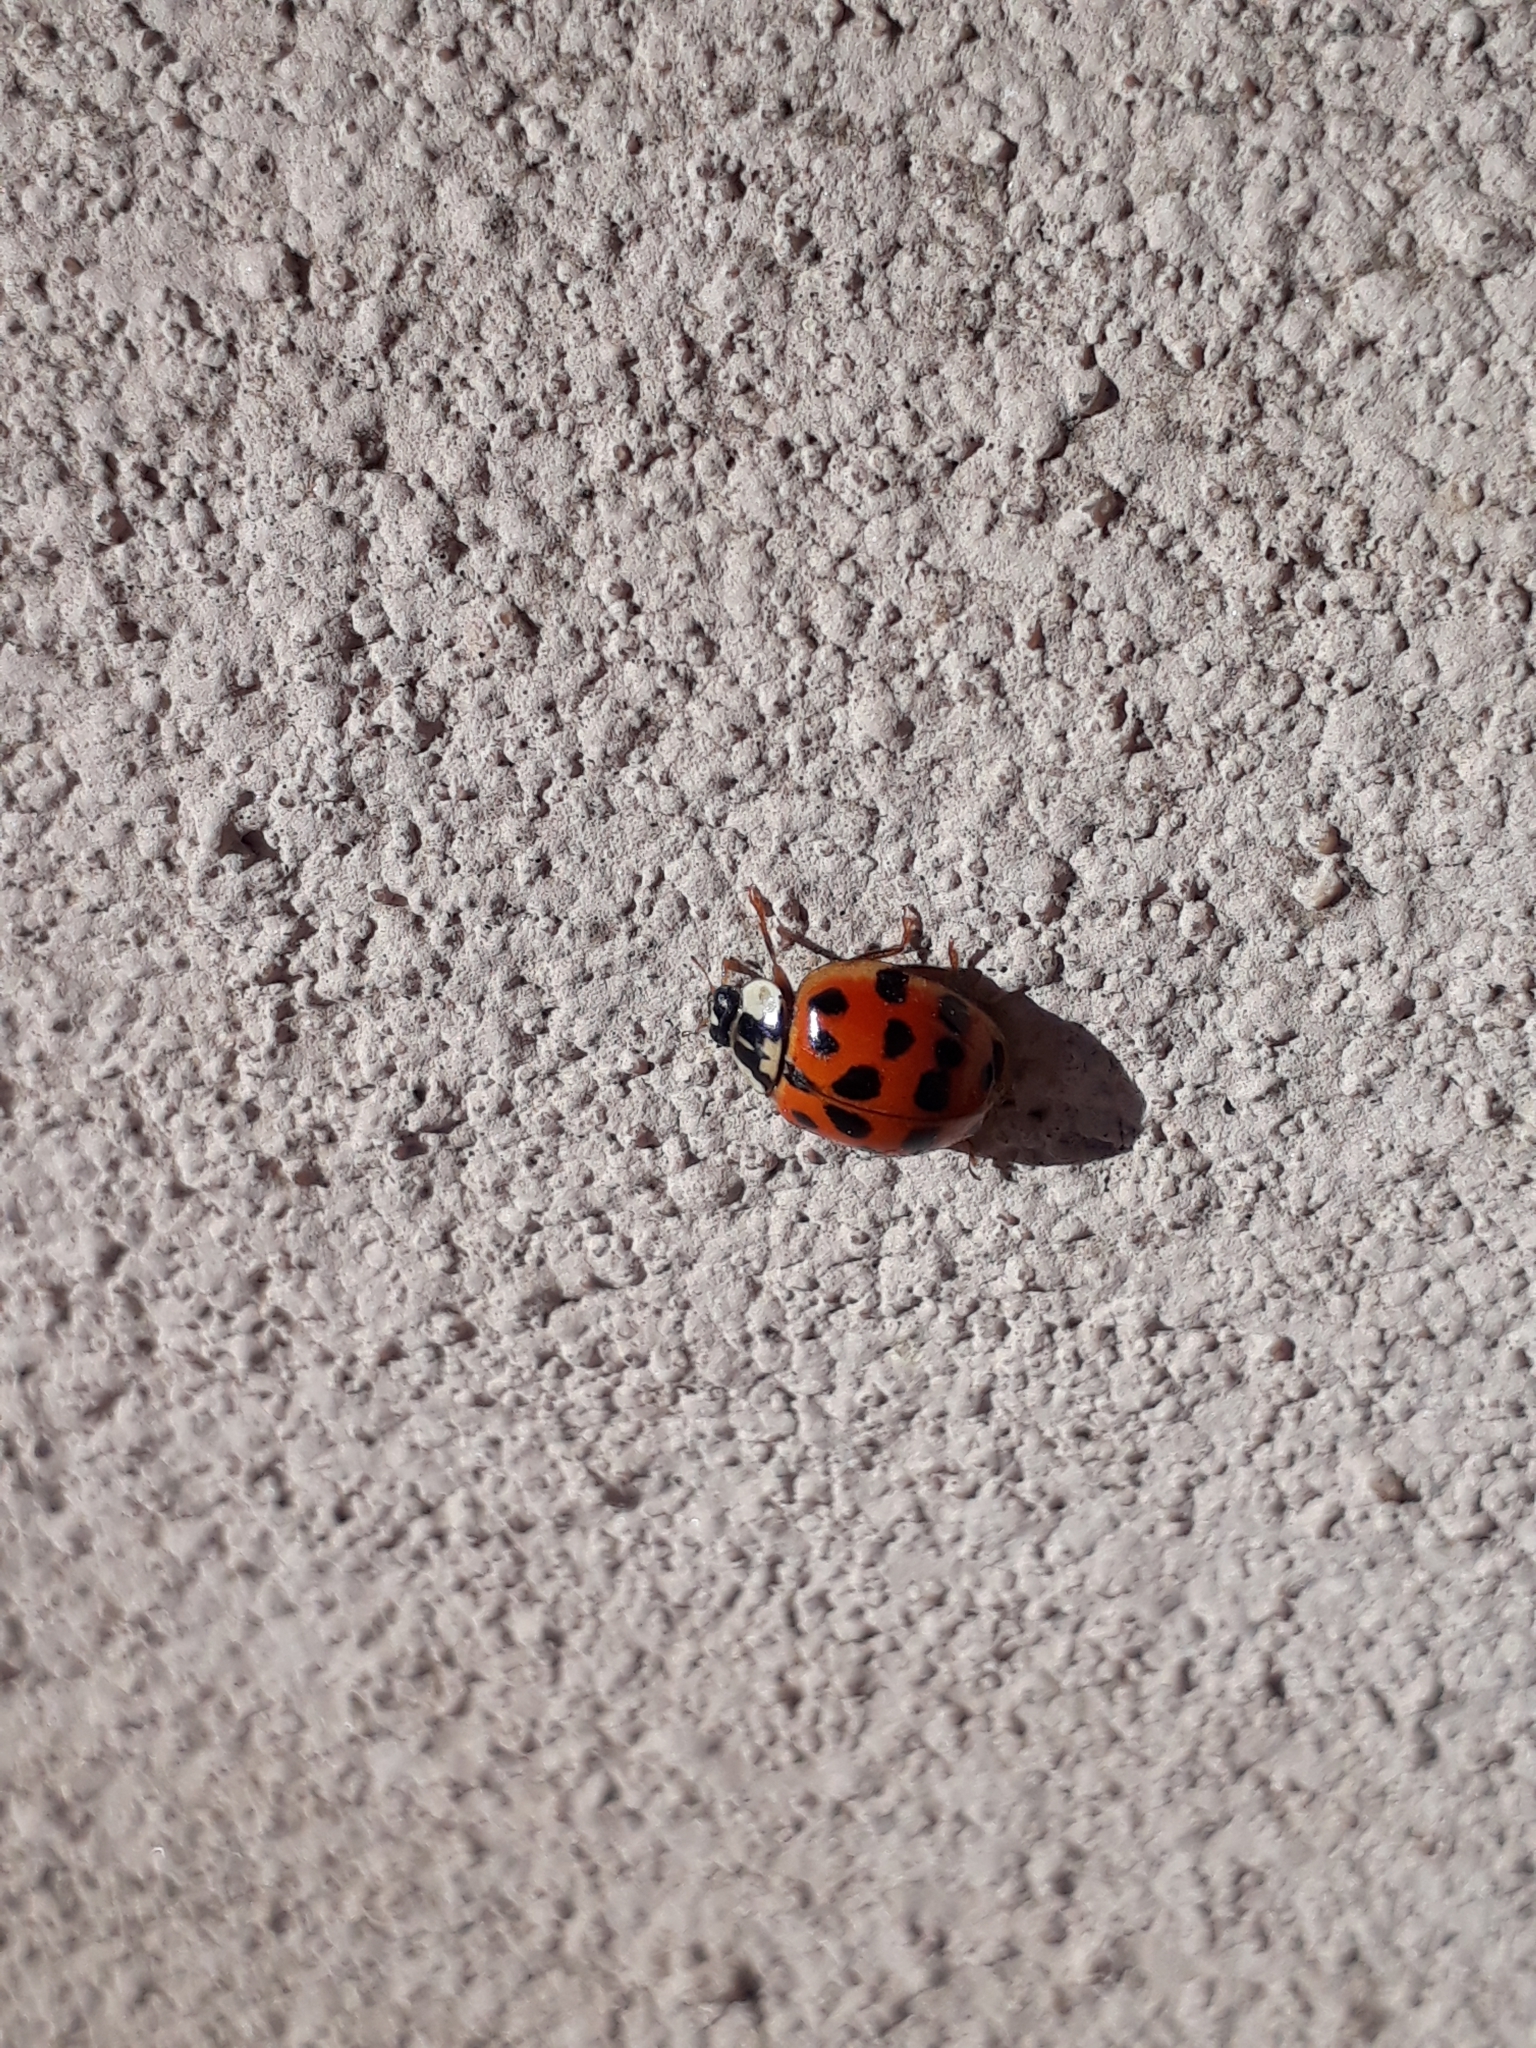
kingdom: Animalia
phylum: Arthropoda
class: Insecta
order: Coleoptera
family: Coccinellidae
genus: Harmonia
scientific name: Harmonia axyridis
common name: Harlequin ladybird
